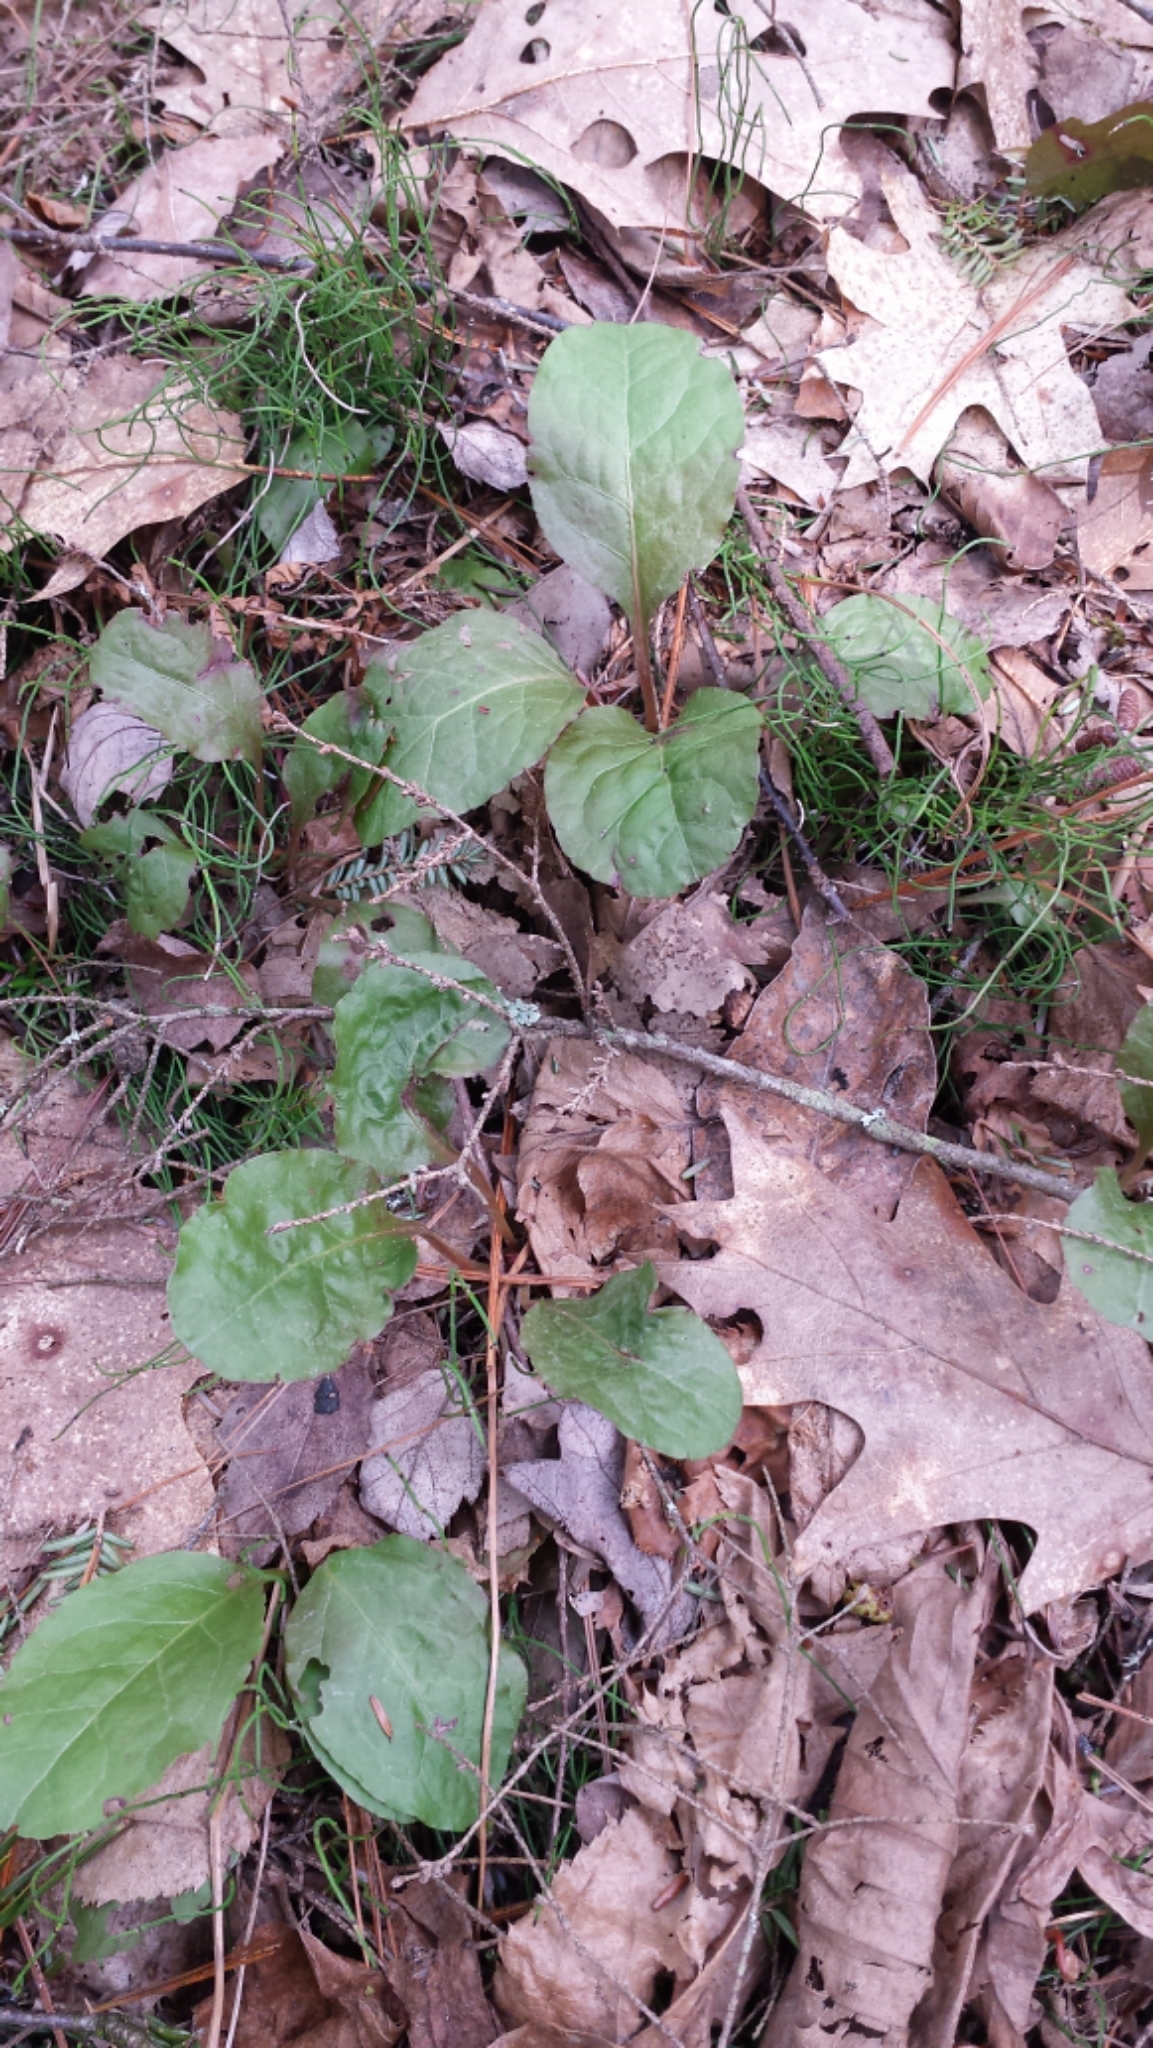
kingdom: Plantae
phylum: Tracheophyta
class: Magnoliopsida
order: Ericales
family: Ericaceae
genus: Pyrola
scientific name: Pyrola elliptica
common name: Shinleaf
